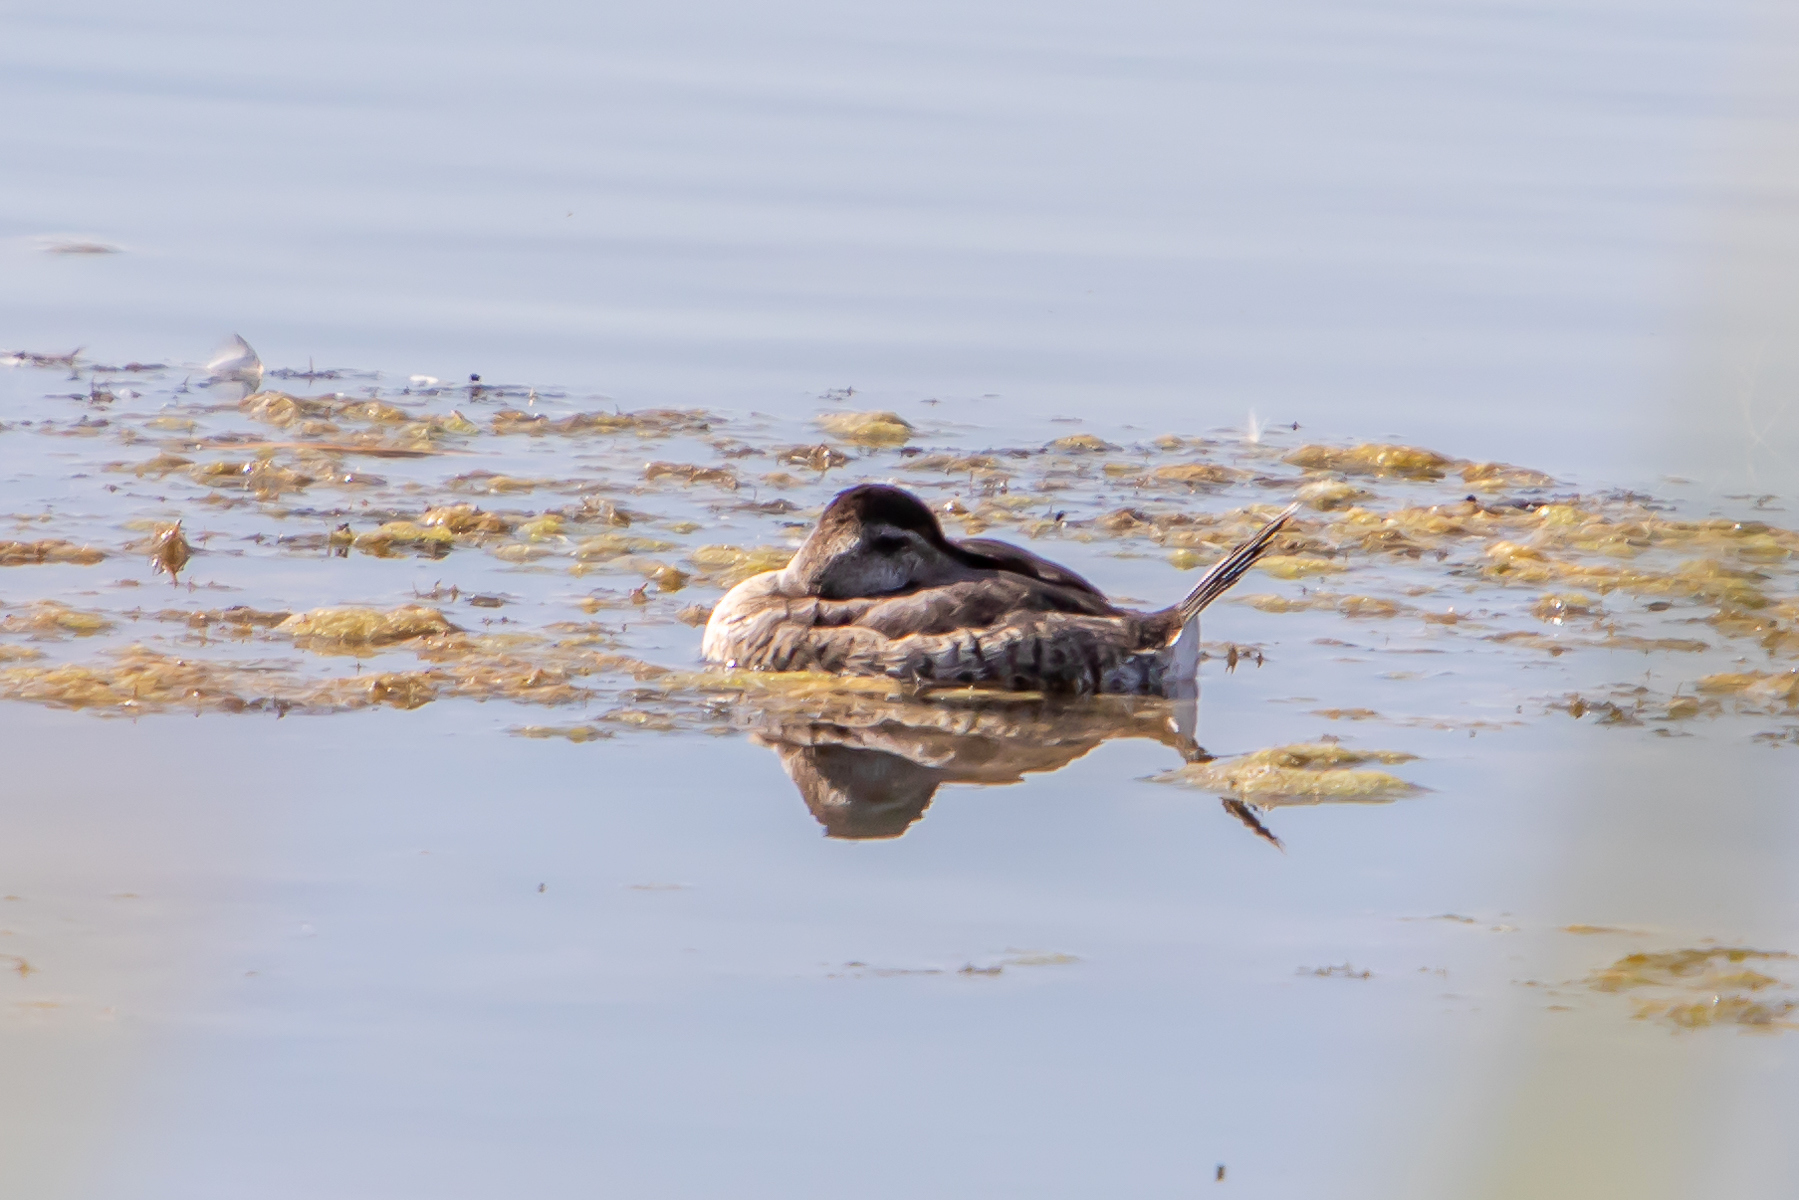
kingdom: Animalia
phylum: Chordata
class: Aves
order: Anseriformes
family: Anatidae
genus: Oxyura
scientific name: Oxyura jamaicensis
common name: Ruddy duck
